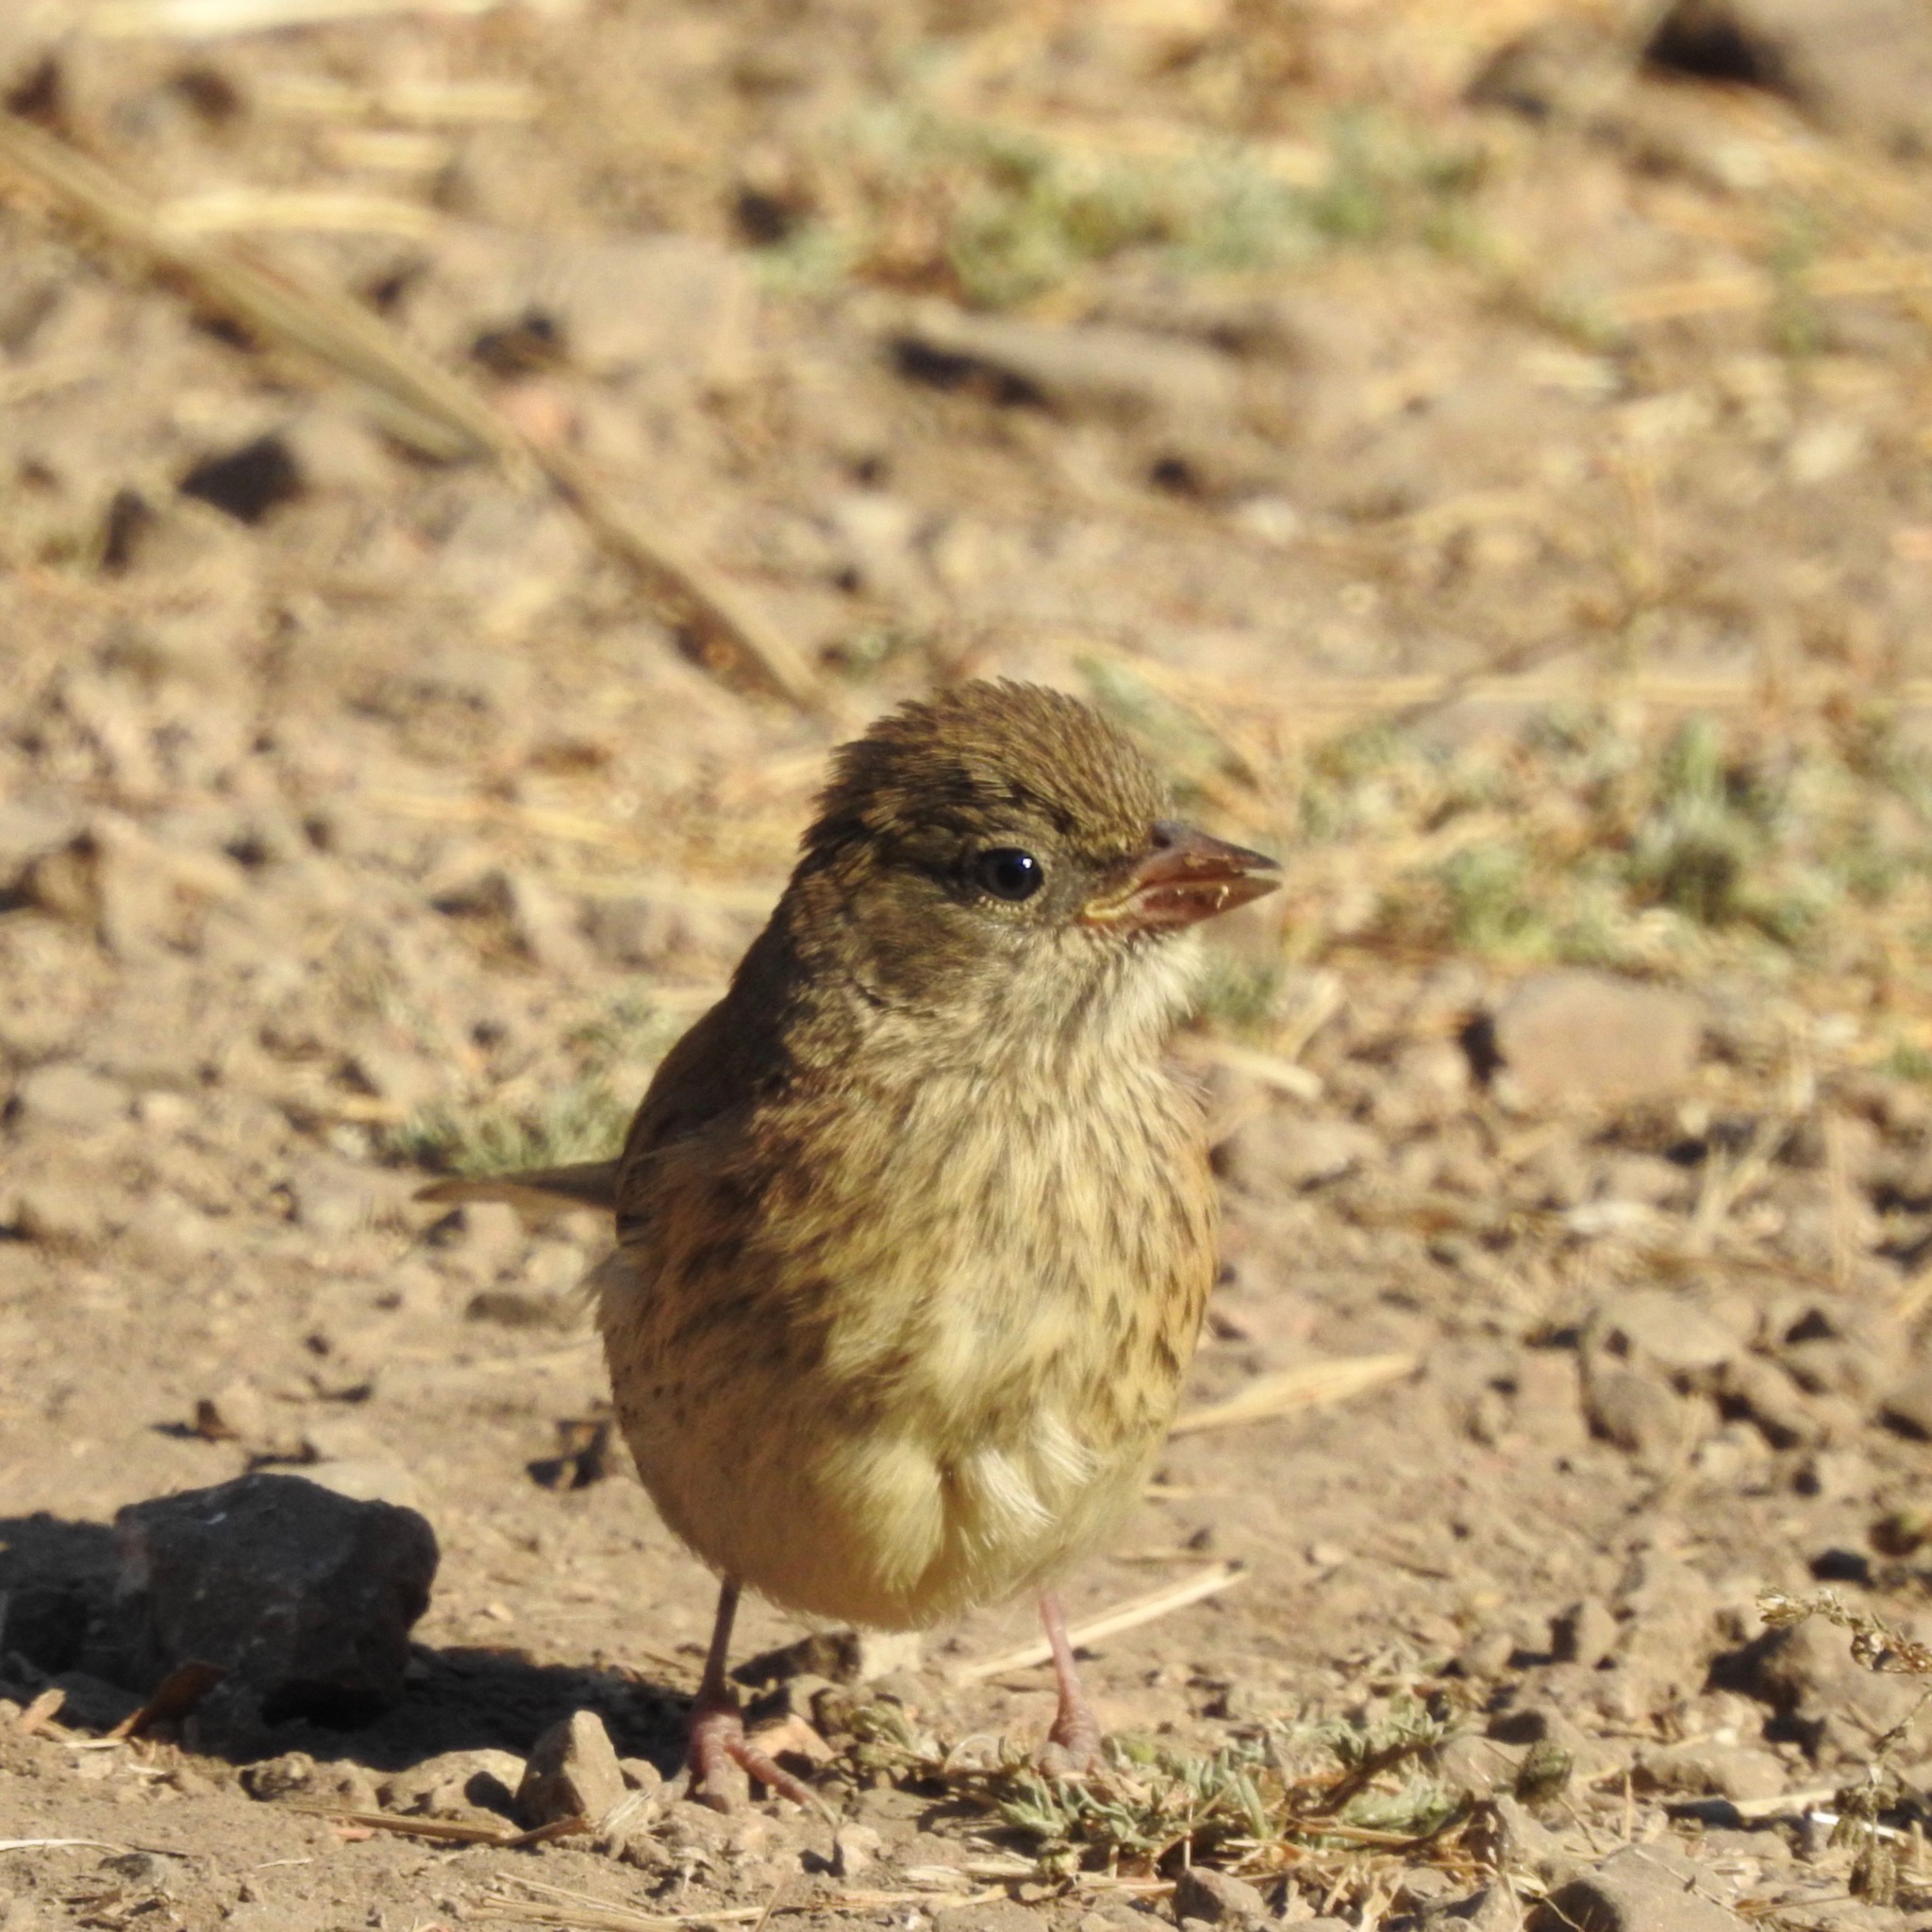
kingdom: Animalia
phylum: Chordata
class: Aves
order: Passeriformes
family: Passerellidae
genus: Junco
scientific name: Junco hyemalis
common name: Dark-eyed junco
